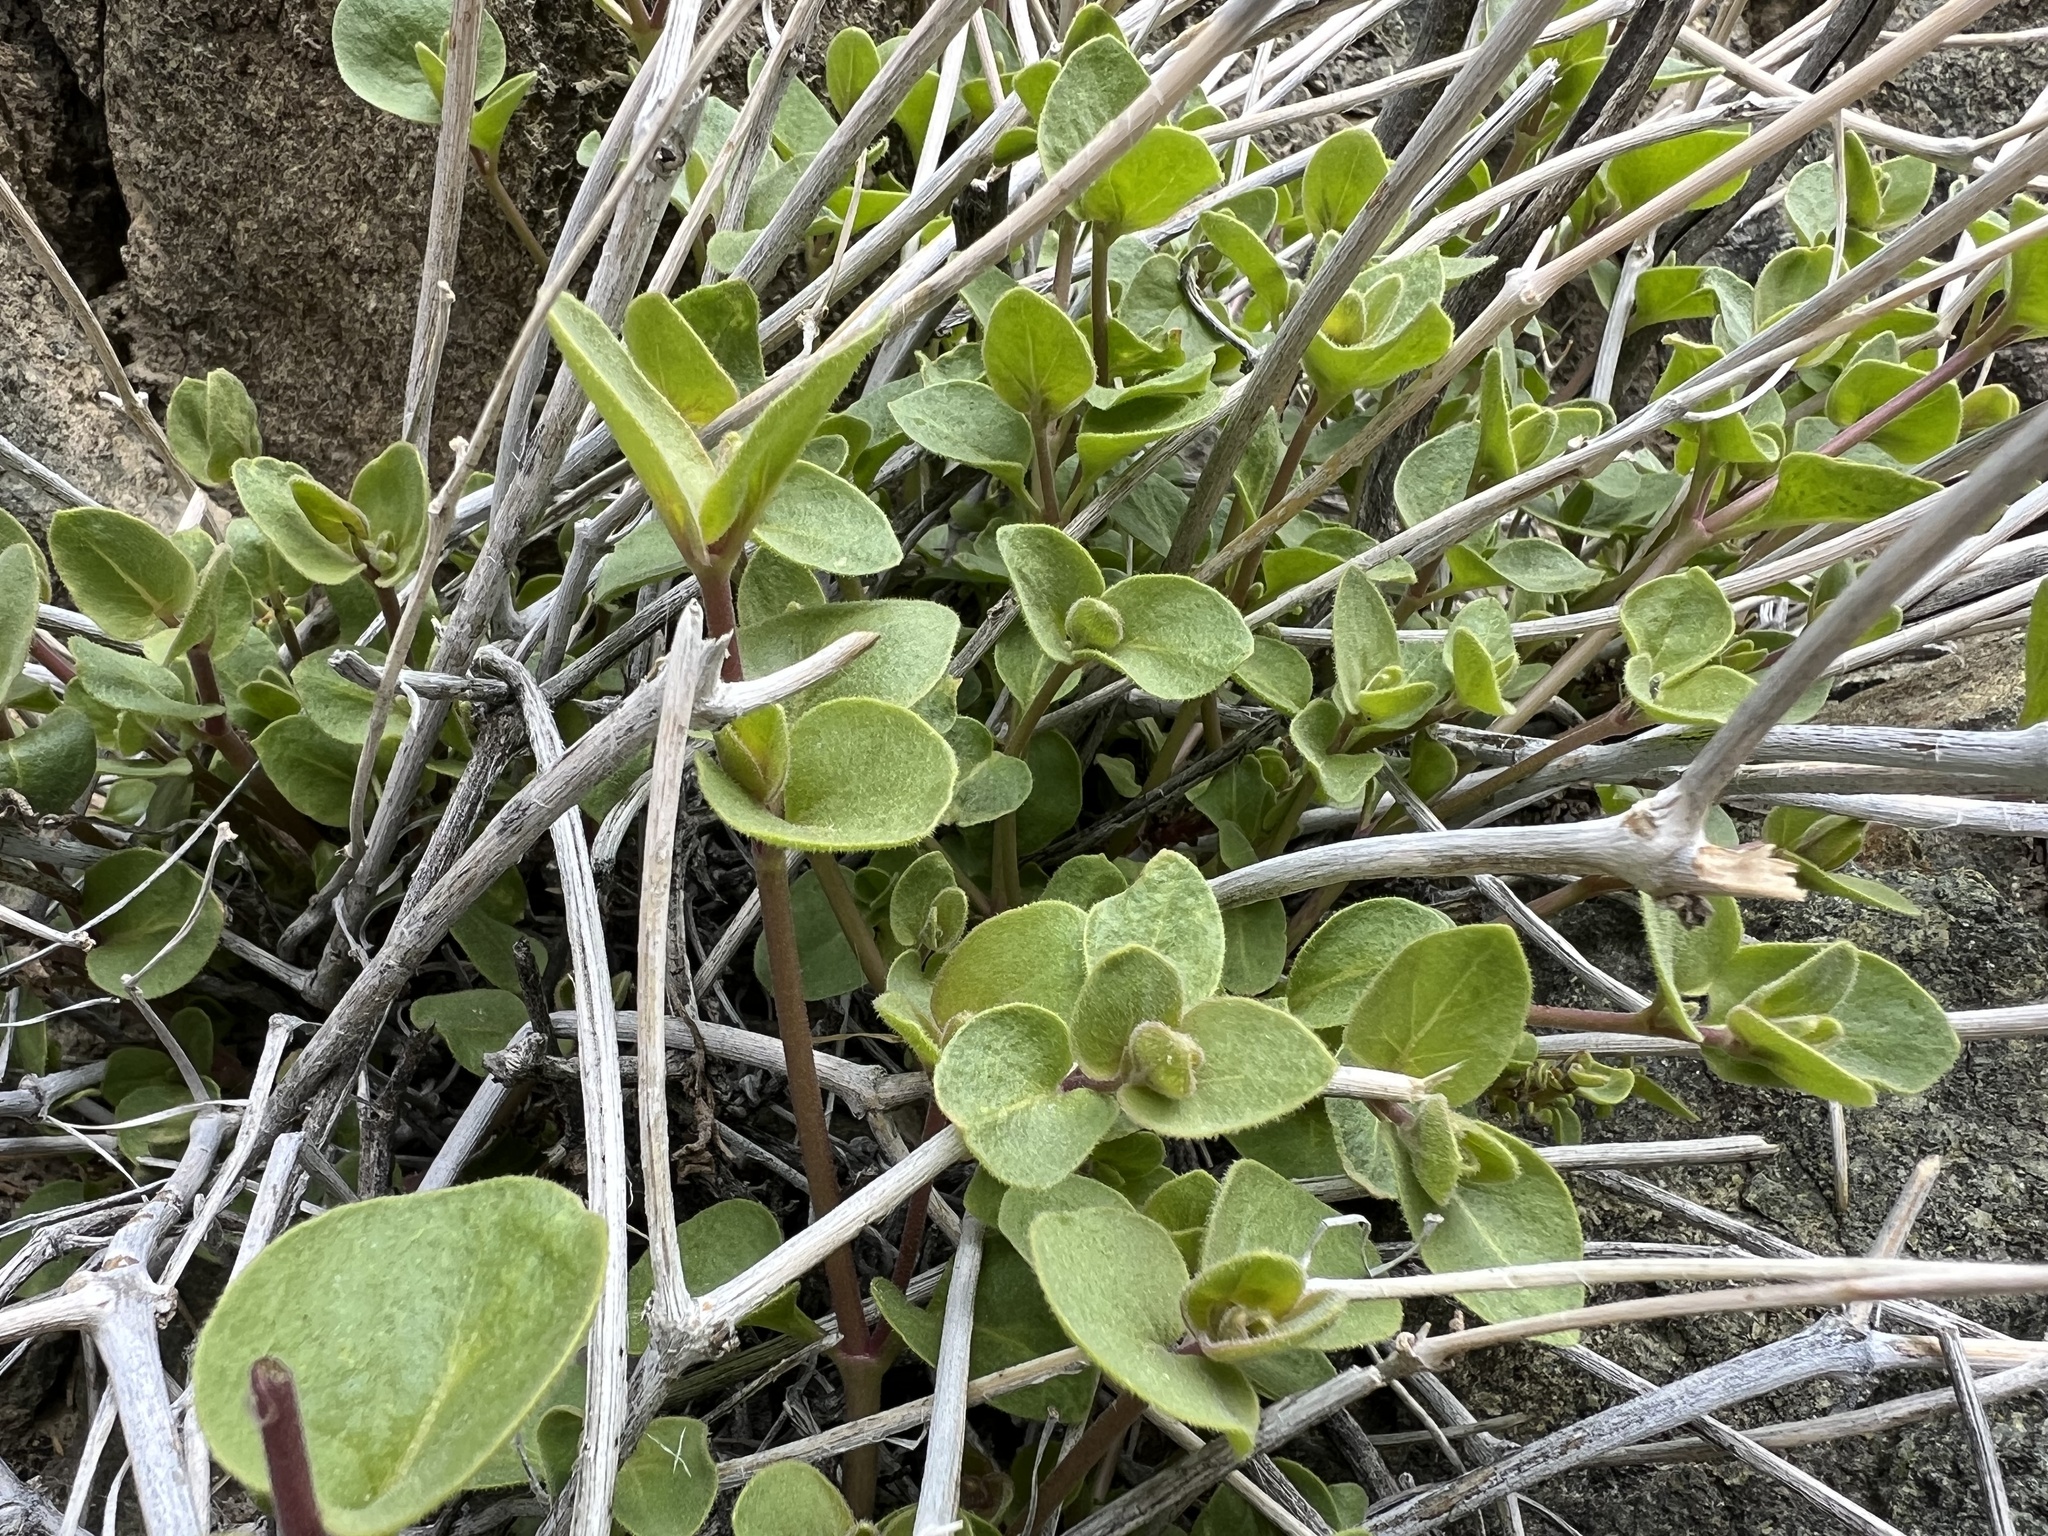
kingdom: Plantae
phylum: Tracheophyta
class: Magnoliopsida
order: Caryophyllales
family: Nyctaginaceae
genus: Mirabilis
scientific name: Mirabilis laevis
